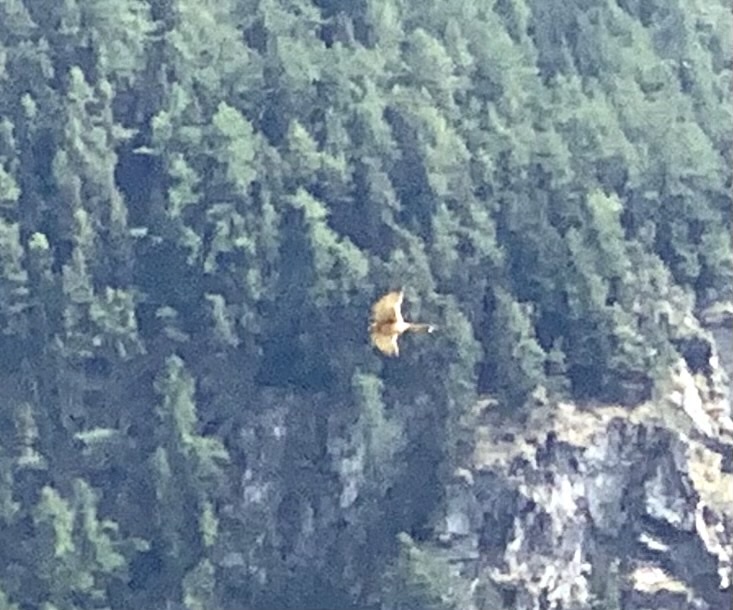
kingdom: Animalia
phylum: Chordata
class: Aves
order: Falconiformes
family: Falconidae
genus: Falco
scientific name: Falco tinnunculus
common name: Common kestrel
